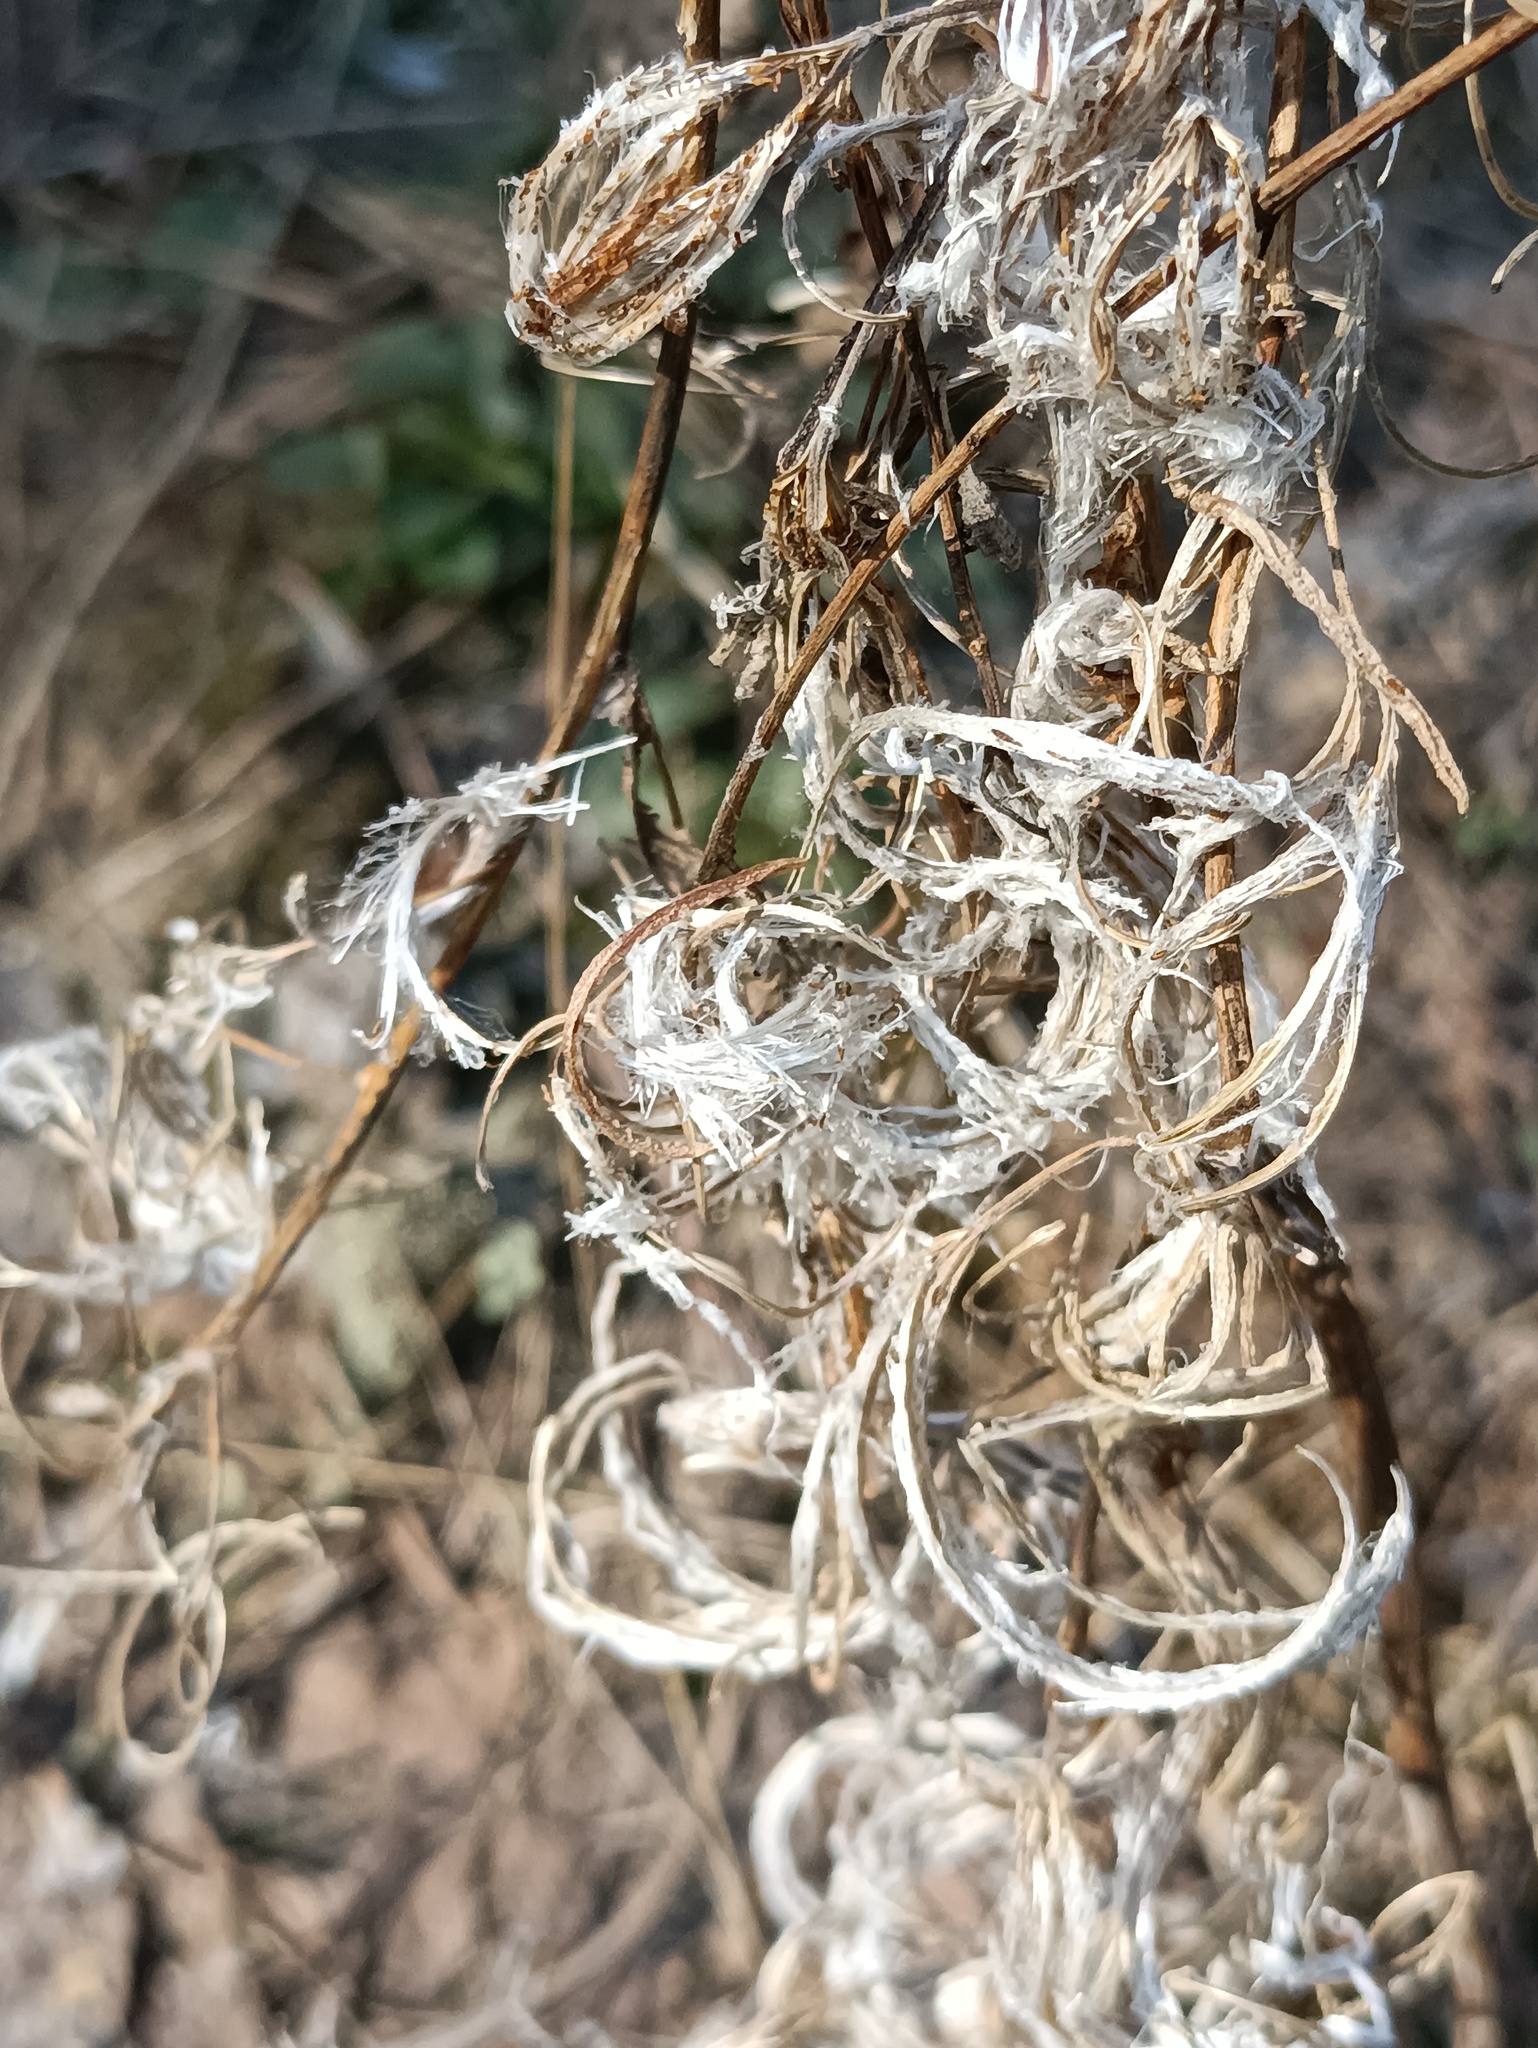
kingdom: Plantae
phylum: Tracheophyta
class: Magnoliopsida
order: Myrtales
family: Onagraceae
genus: Chamaenerion
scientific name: Chamaenerion angustifolium
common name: Fireweed
